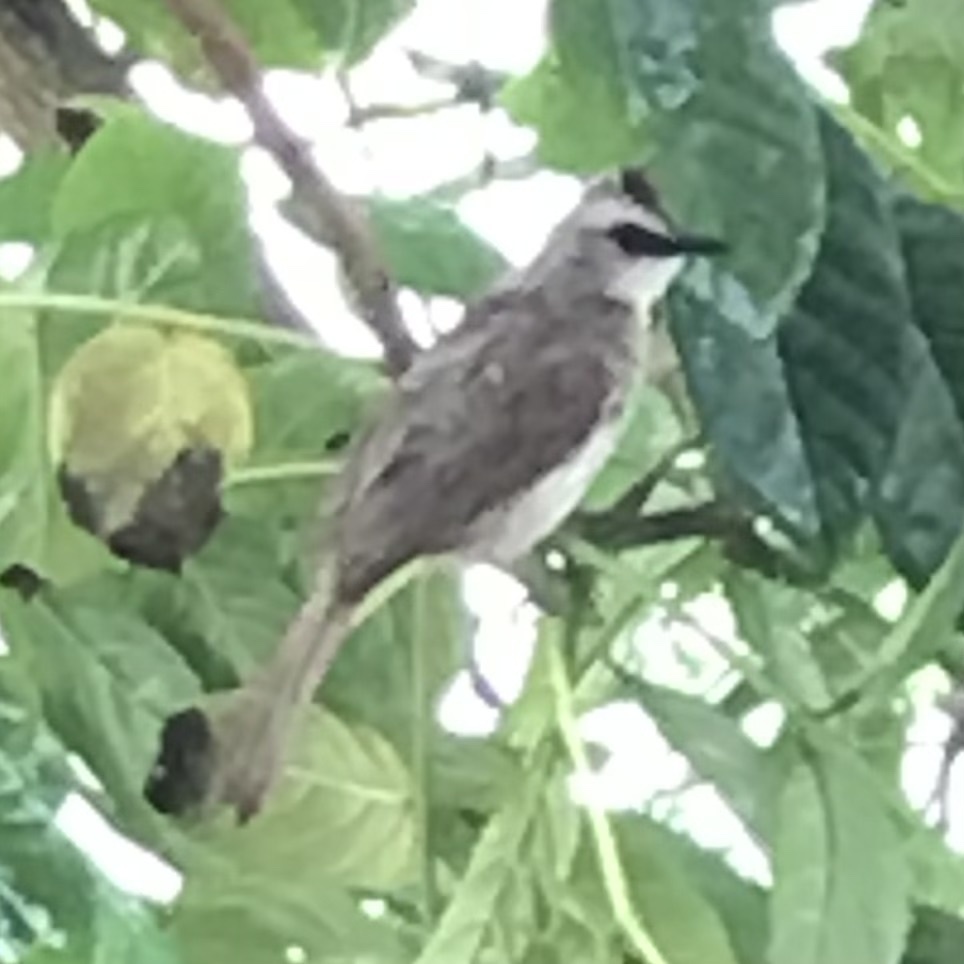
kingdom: Animalia
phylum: Chordata
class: Aves
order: Passeriformes
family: Pycnonotidae
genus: Pycnonotus
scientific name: Pycnonotus goiavier
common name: Yellow-vented bulbul
